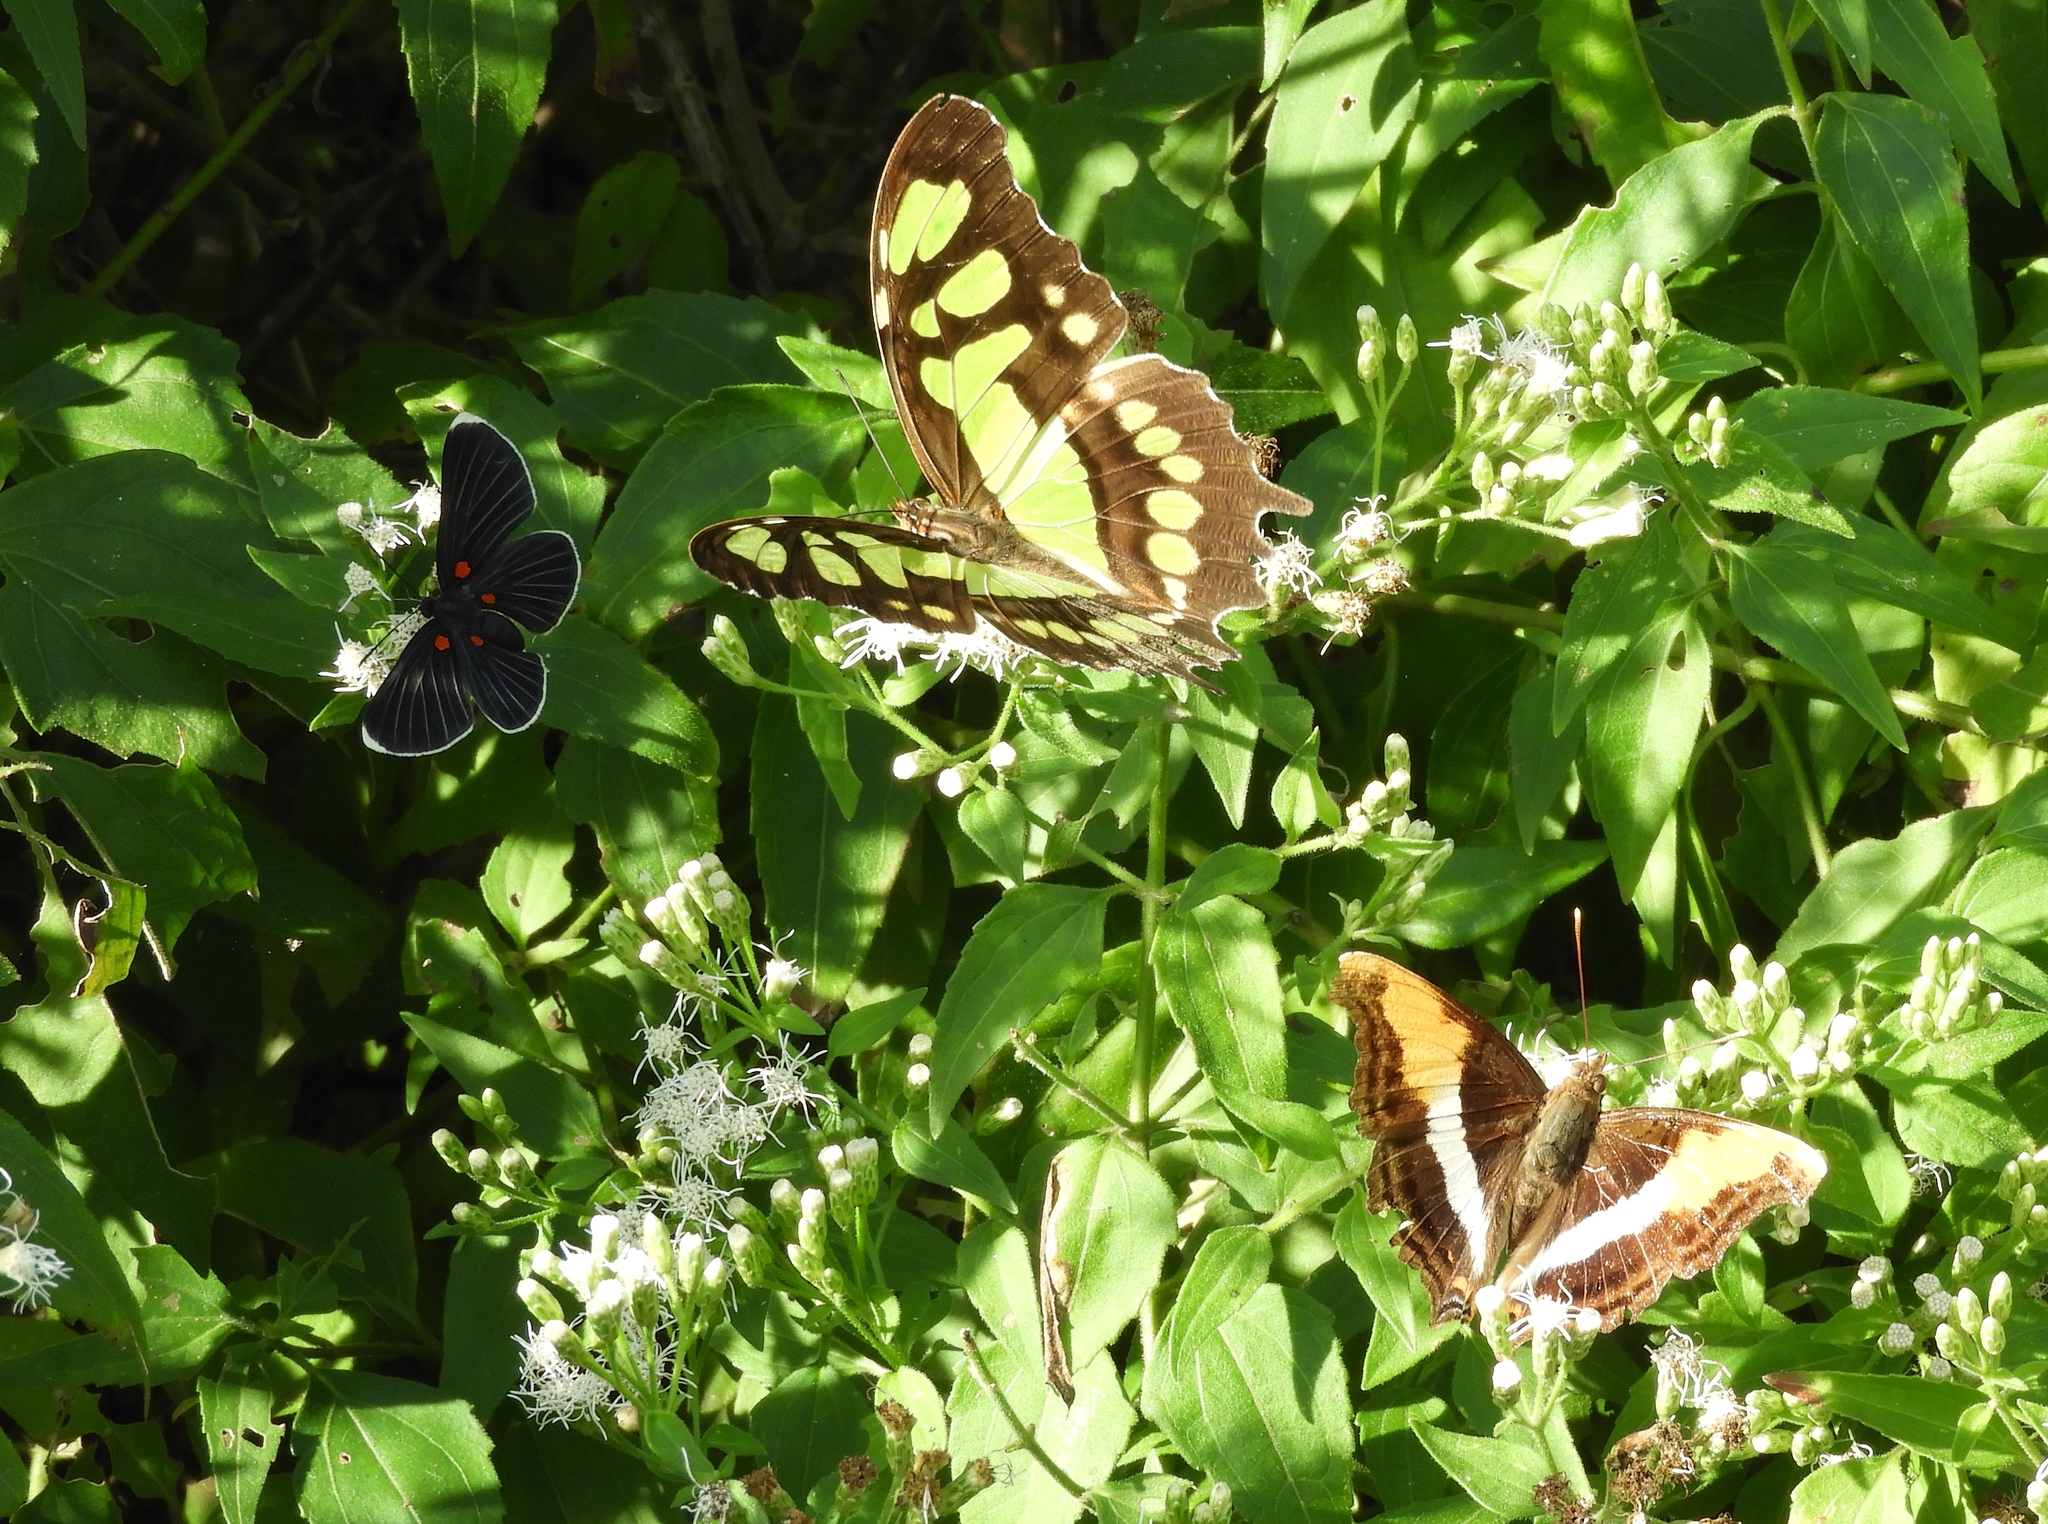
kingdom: Plantae
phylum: Tracheophyta
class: Magnoliopsida
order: Asterales
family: Asteraceae
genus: Chromolaena
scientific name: Chromolaena odorata
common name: Siamweed
